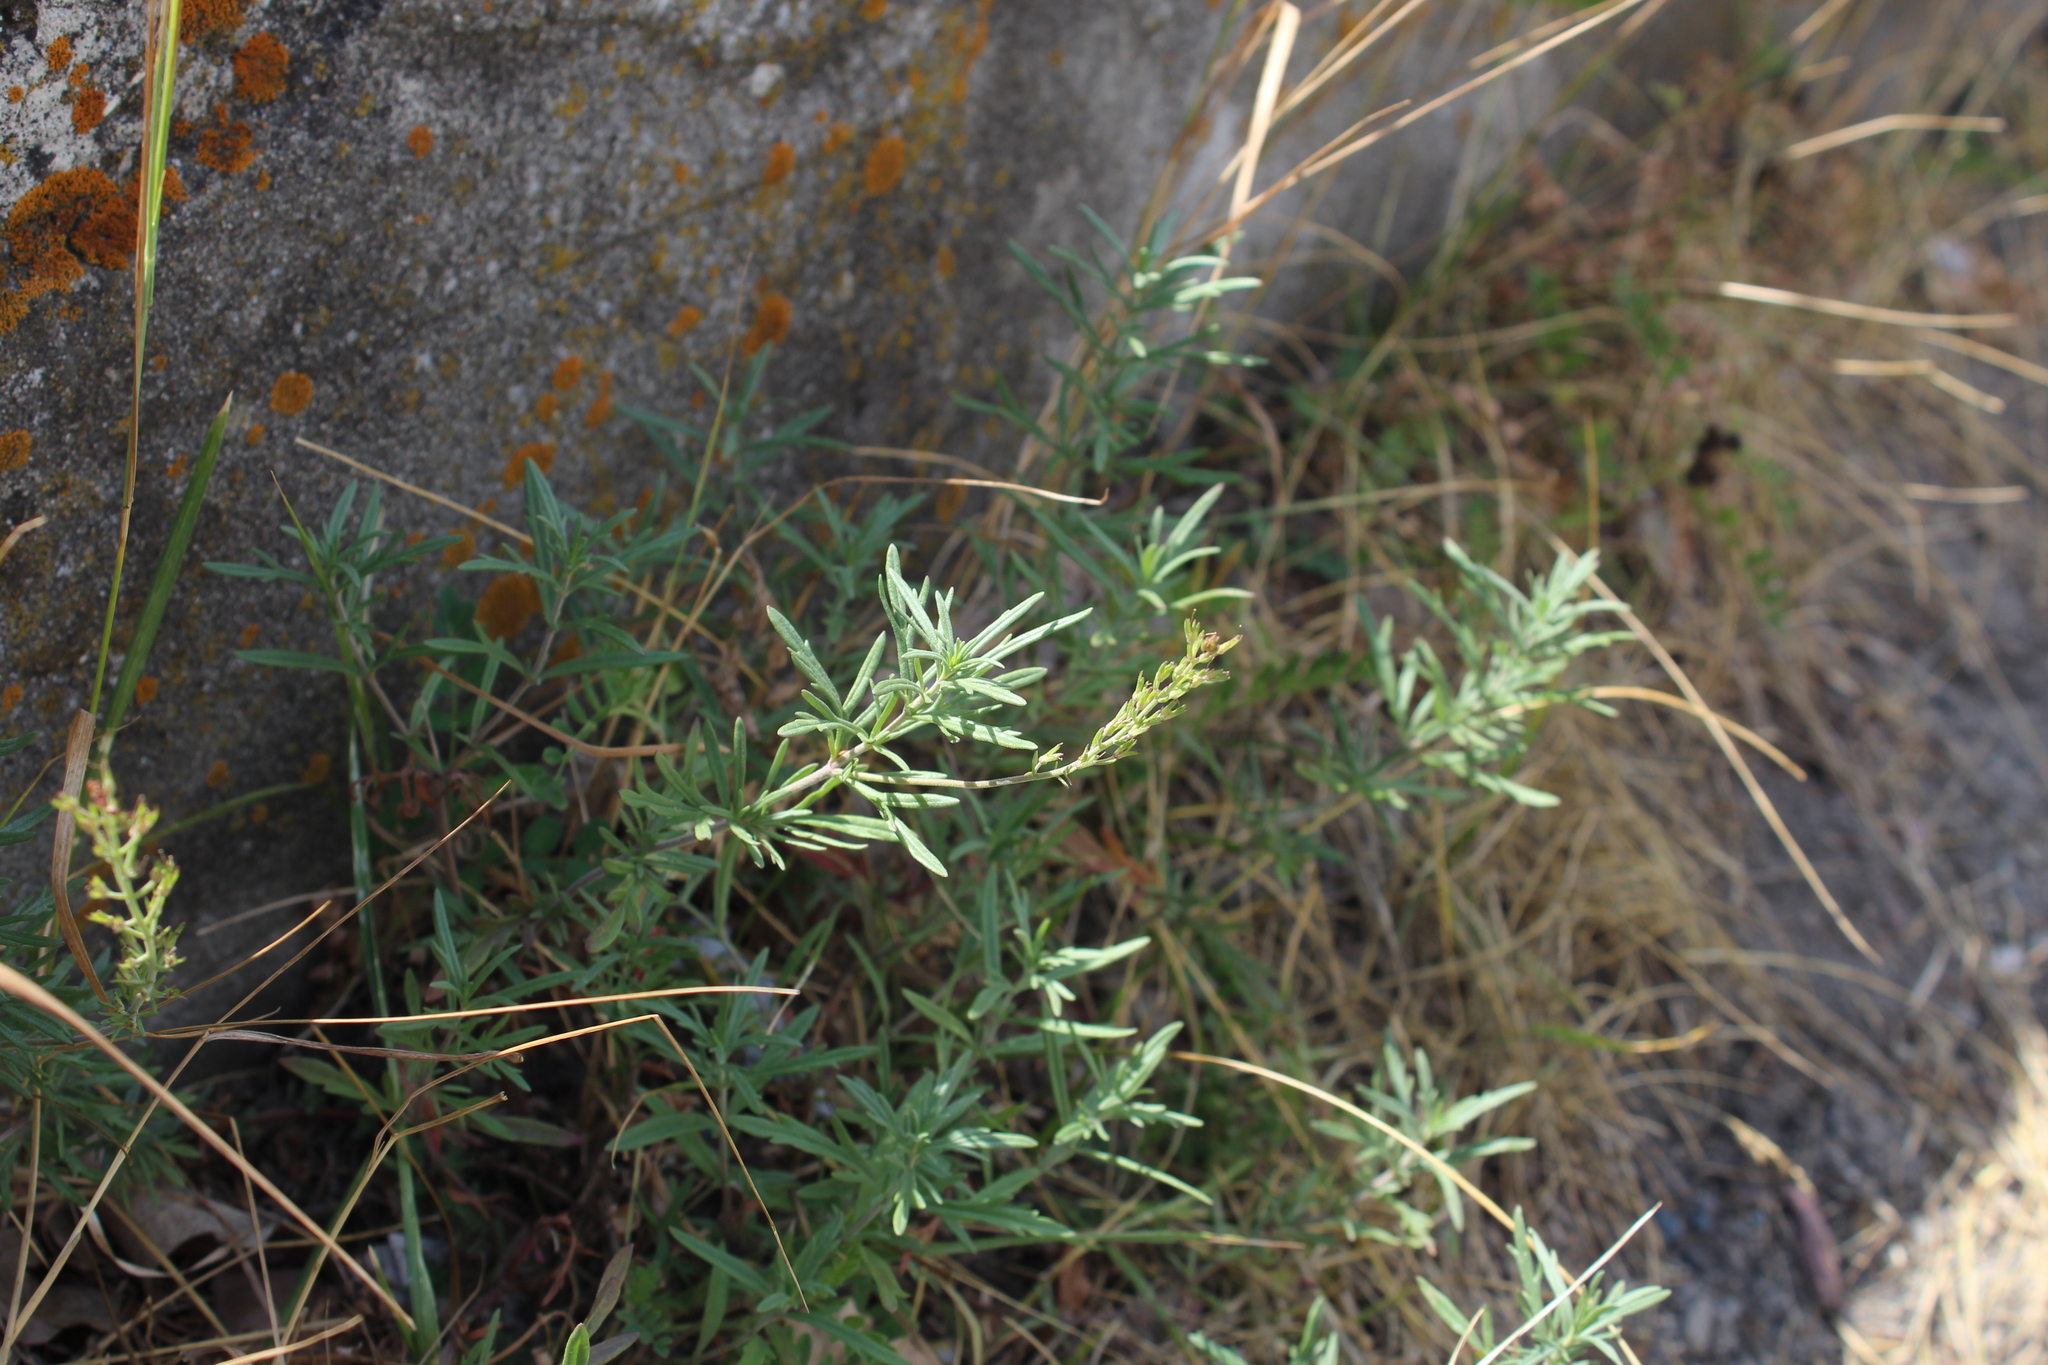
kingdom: Plantae
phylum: Tracheophyta
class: Magnoliopsida
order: Lamiales
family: Plantaginaceae
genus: Veronica
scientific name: Veronica caucasica
